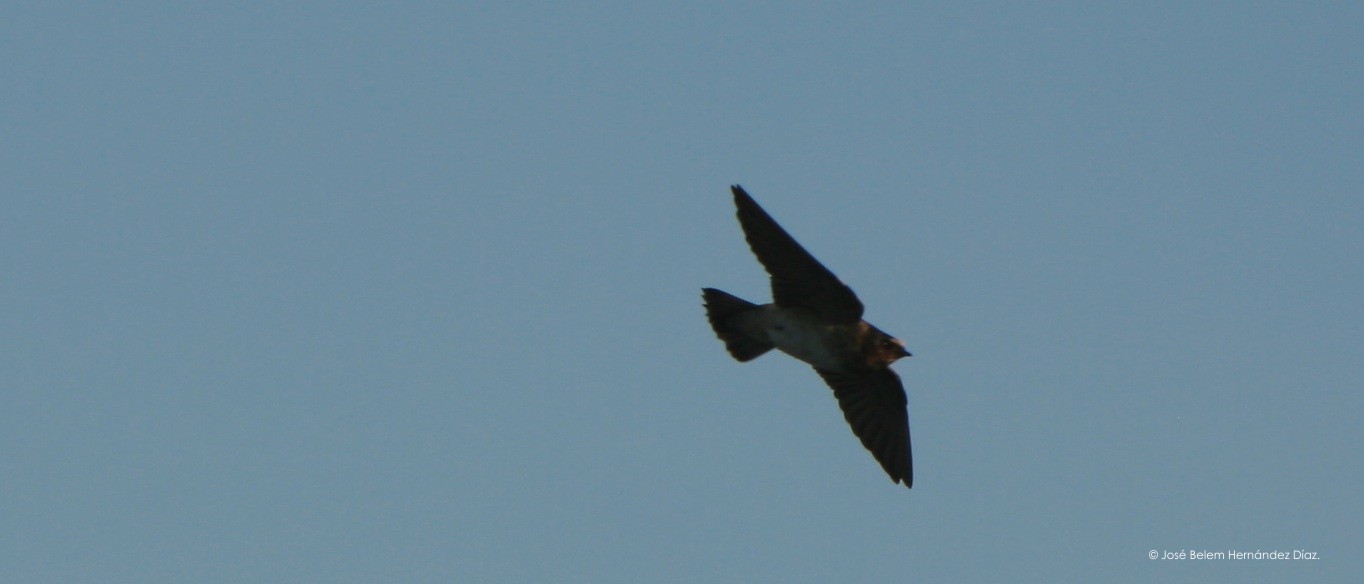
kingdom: Animalia
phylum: Chordata
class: Aves
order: Passeriformes
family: Hirundinidae
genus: Petrochelidon
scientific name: Petrochelidon pyrrhonota
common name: American cliff swallow
